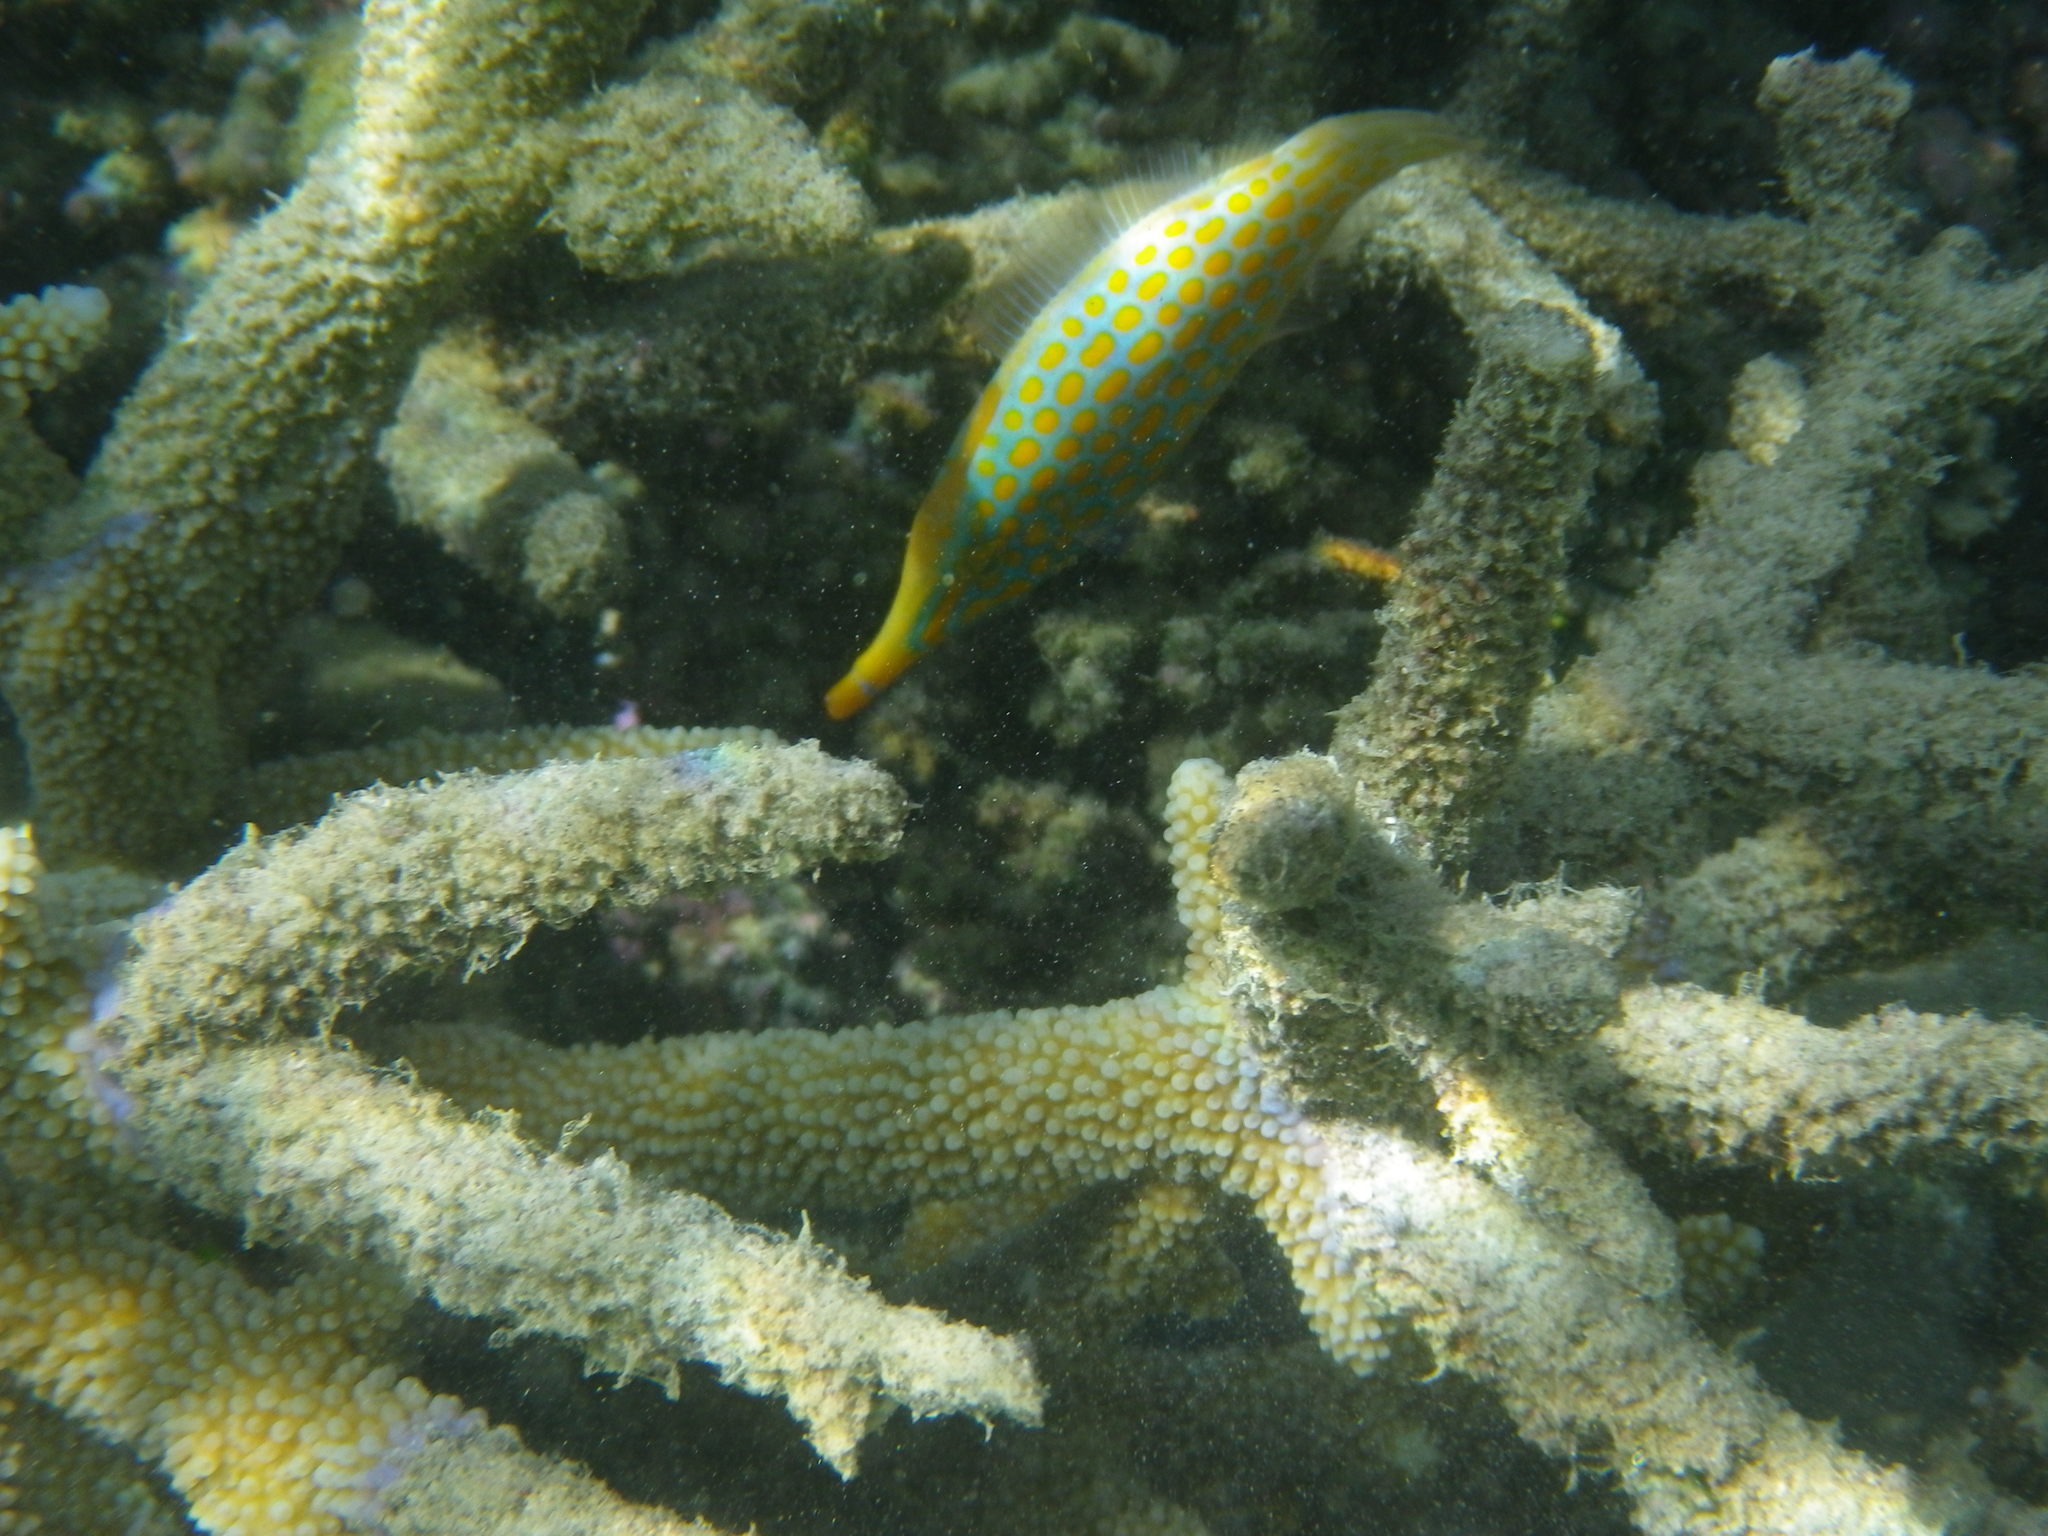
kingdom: Animalia
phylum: Chordata
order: Tetraodontiformes
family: Monacanthidae
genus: Oxymonacanthus
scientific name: Oxymonacanthus longirostris
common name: Beaked leatherjacket
